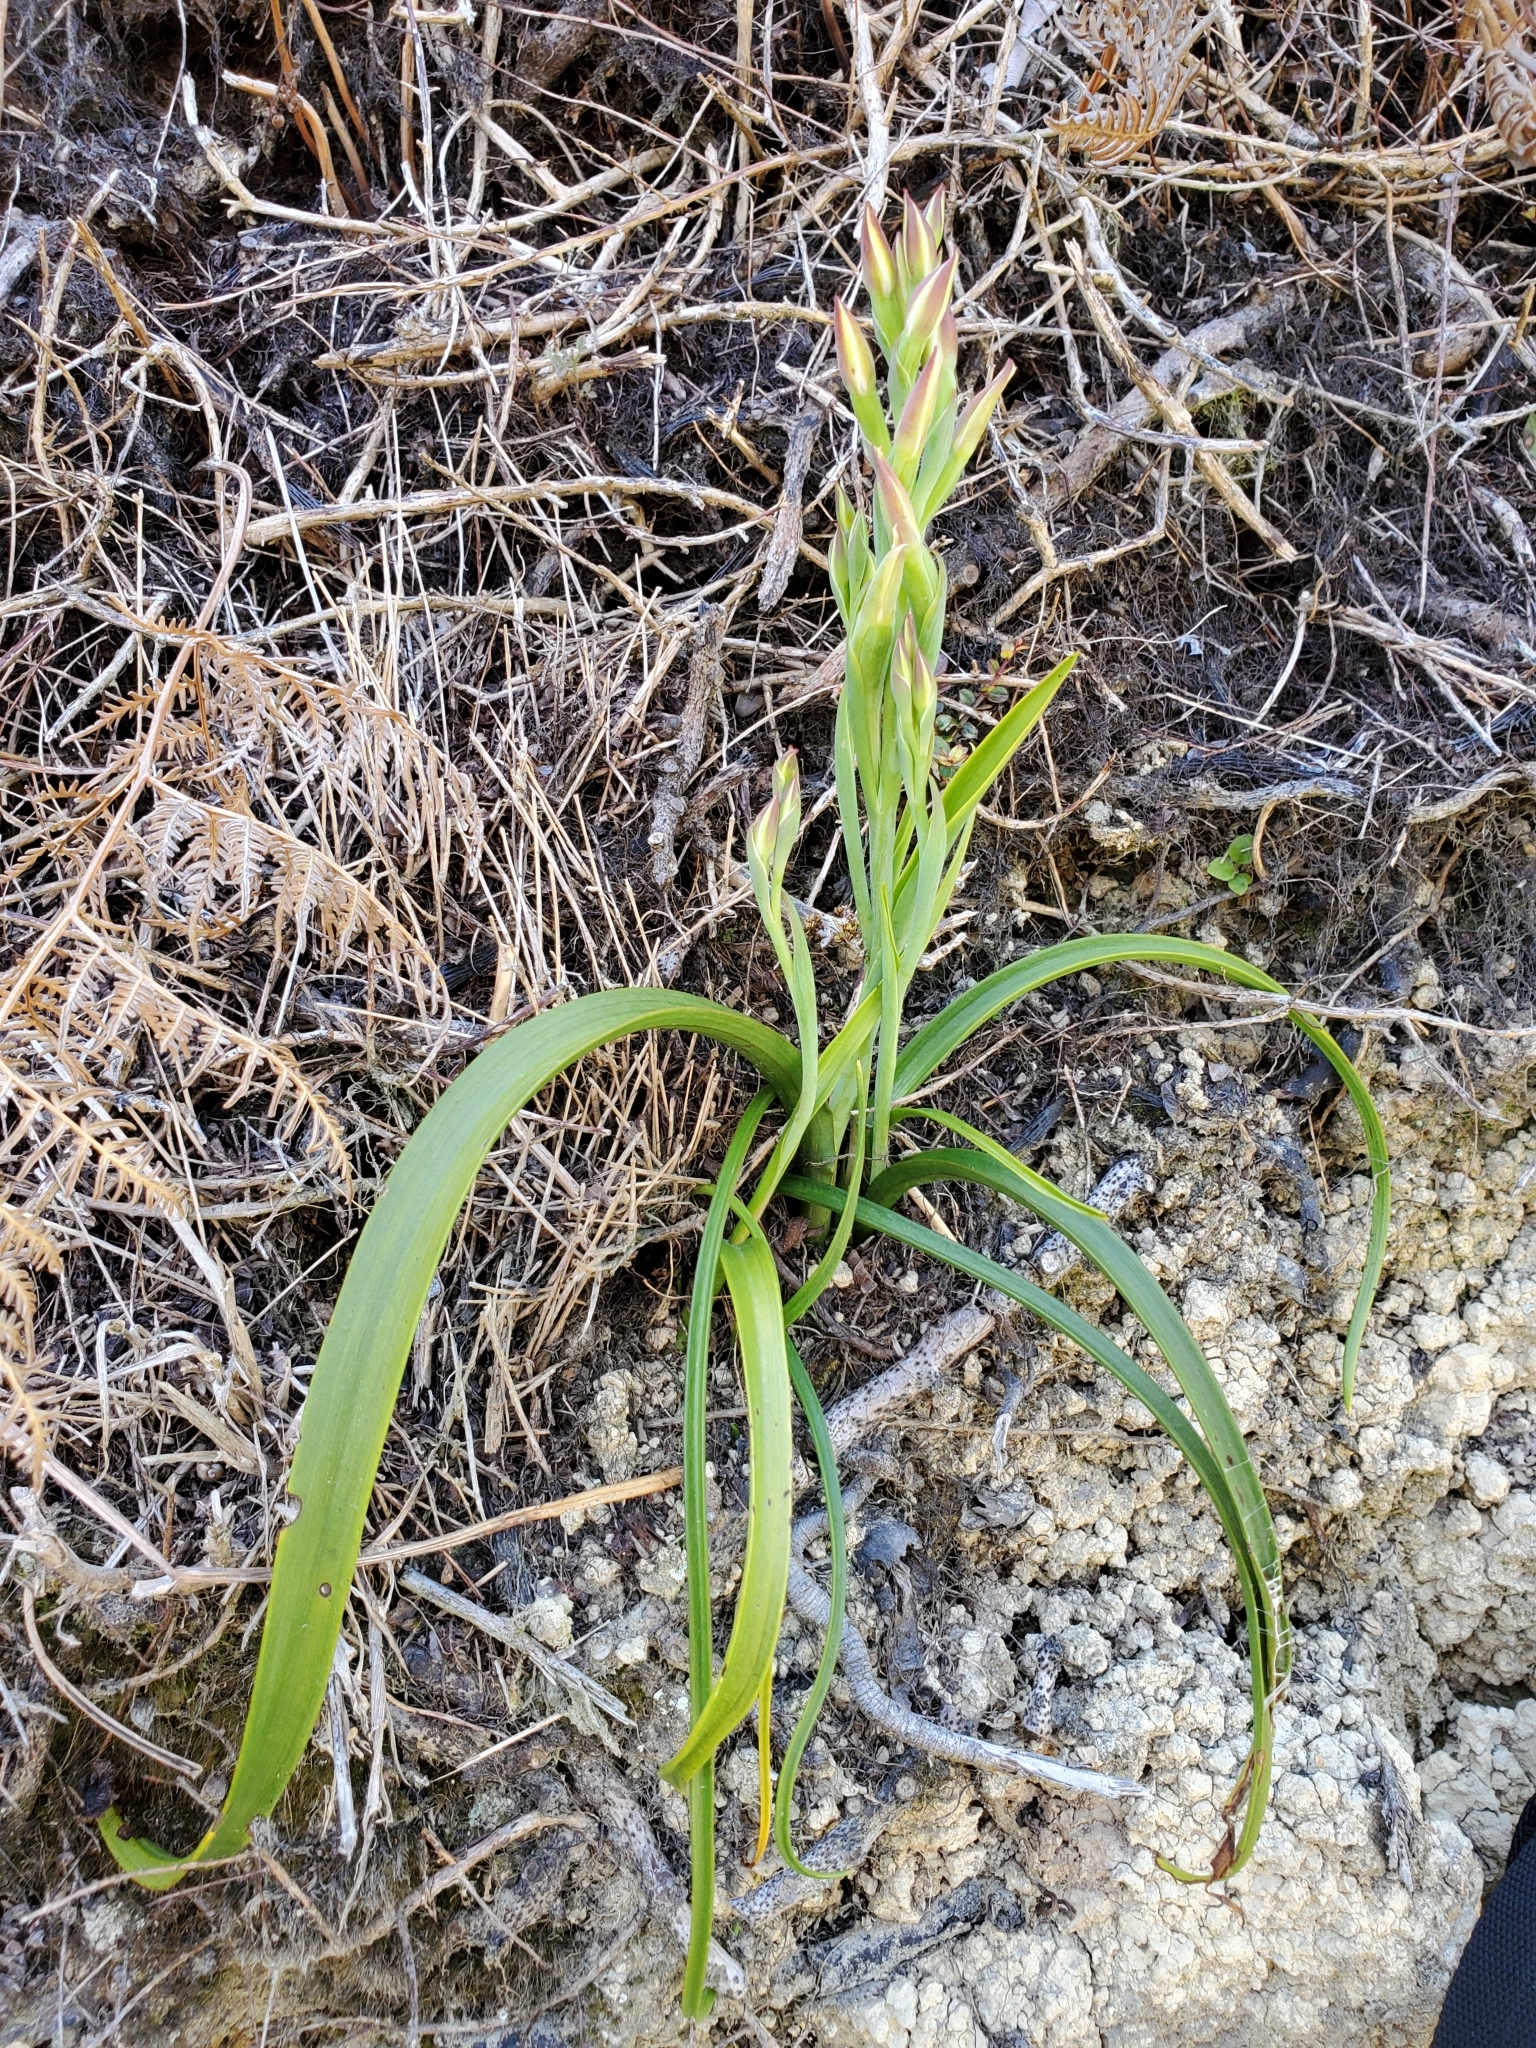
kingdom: Plantae
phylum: Tracheophyta
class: Liliopsida
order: Asparagales
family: Orchidaceae
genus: Thelymitra
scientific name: Thelymitra longifolia
